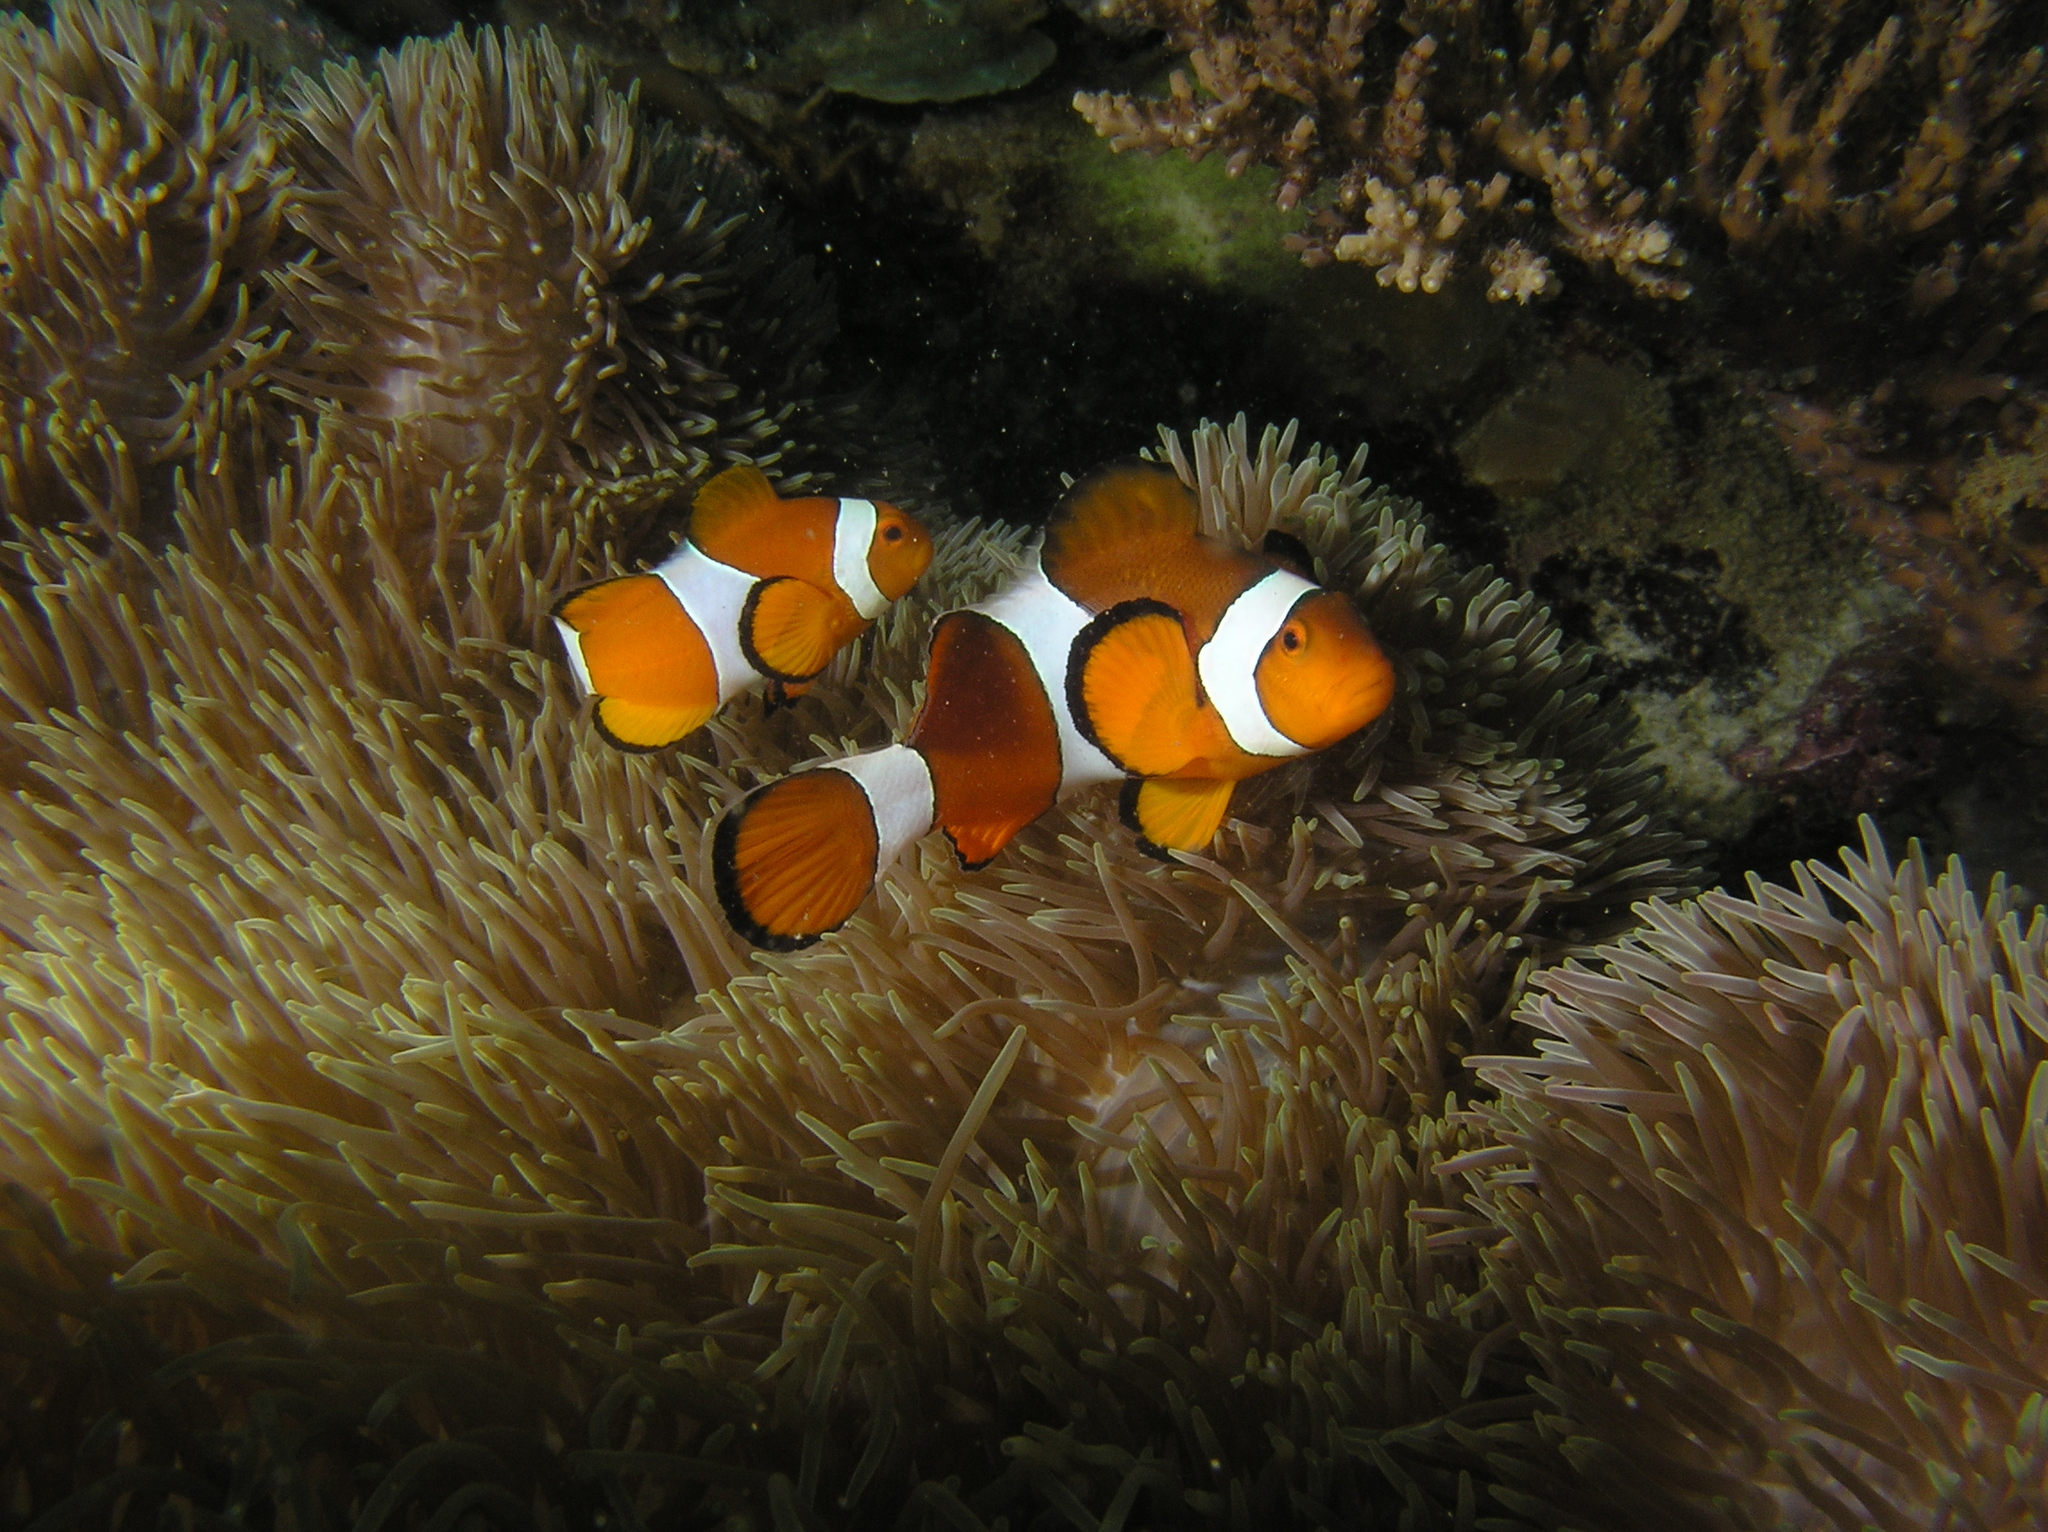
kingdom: Animalia
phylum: Chordata
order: Perciformes
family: Pomacentridae
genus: Amphiprion
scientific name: Amphiprion ocellaris
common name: Clown anemonefish
